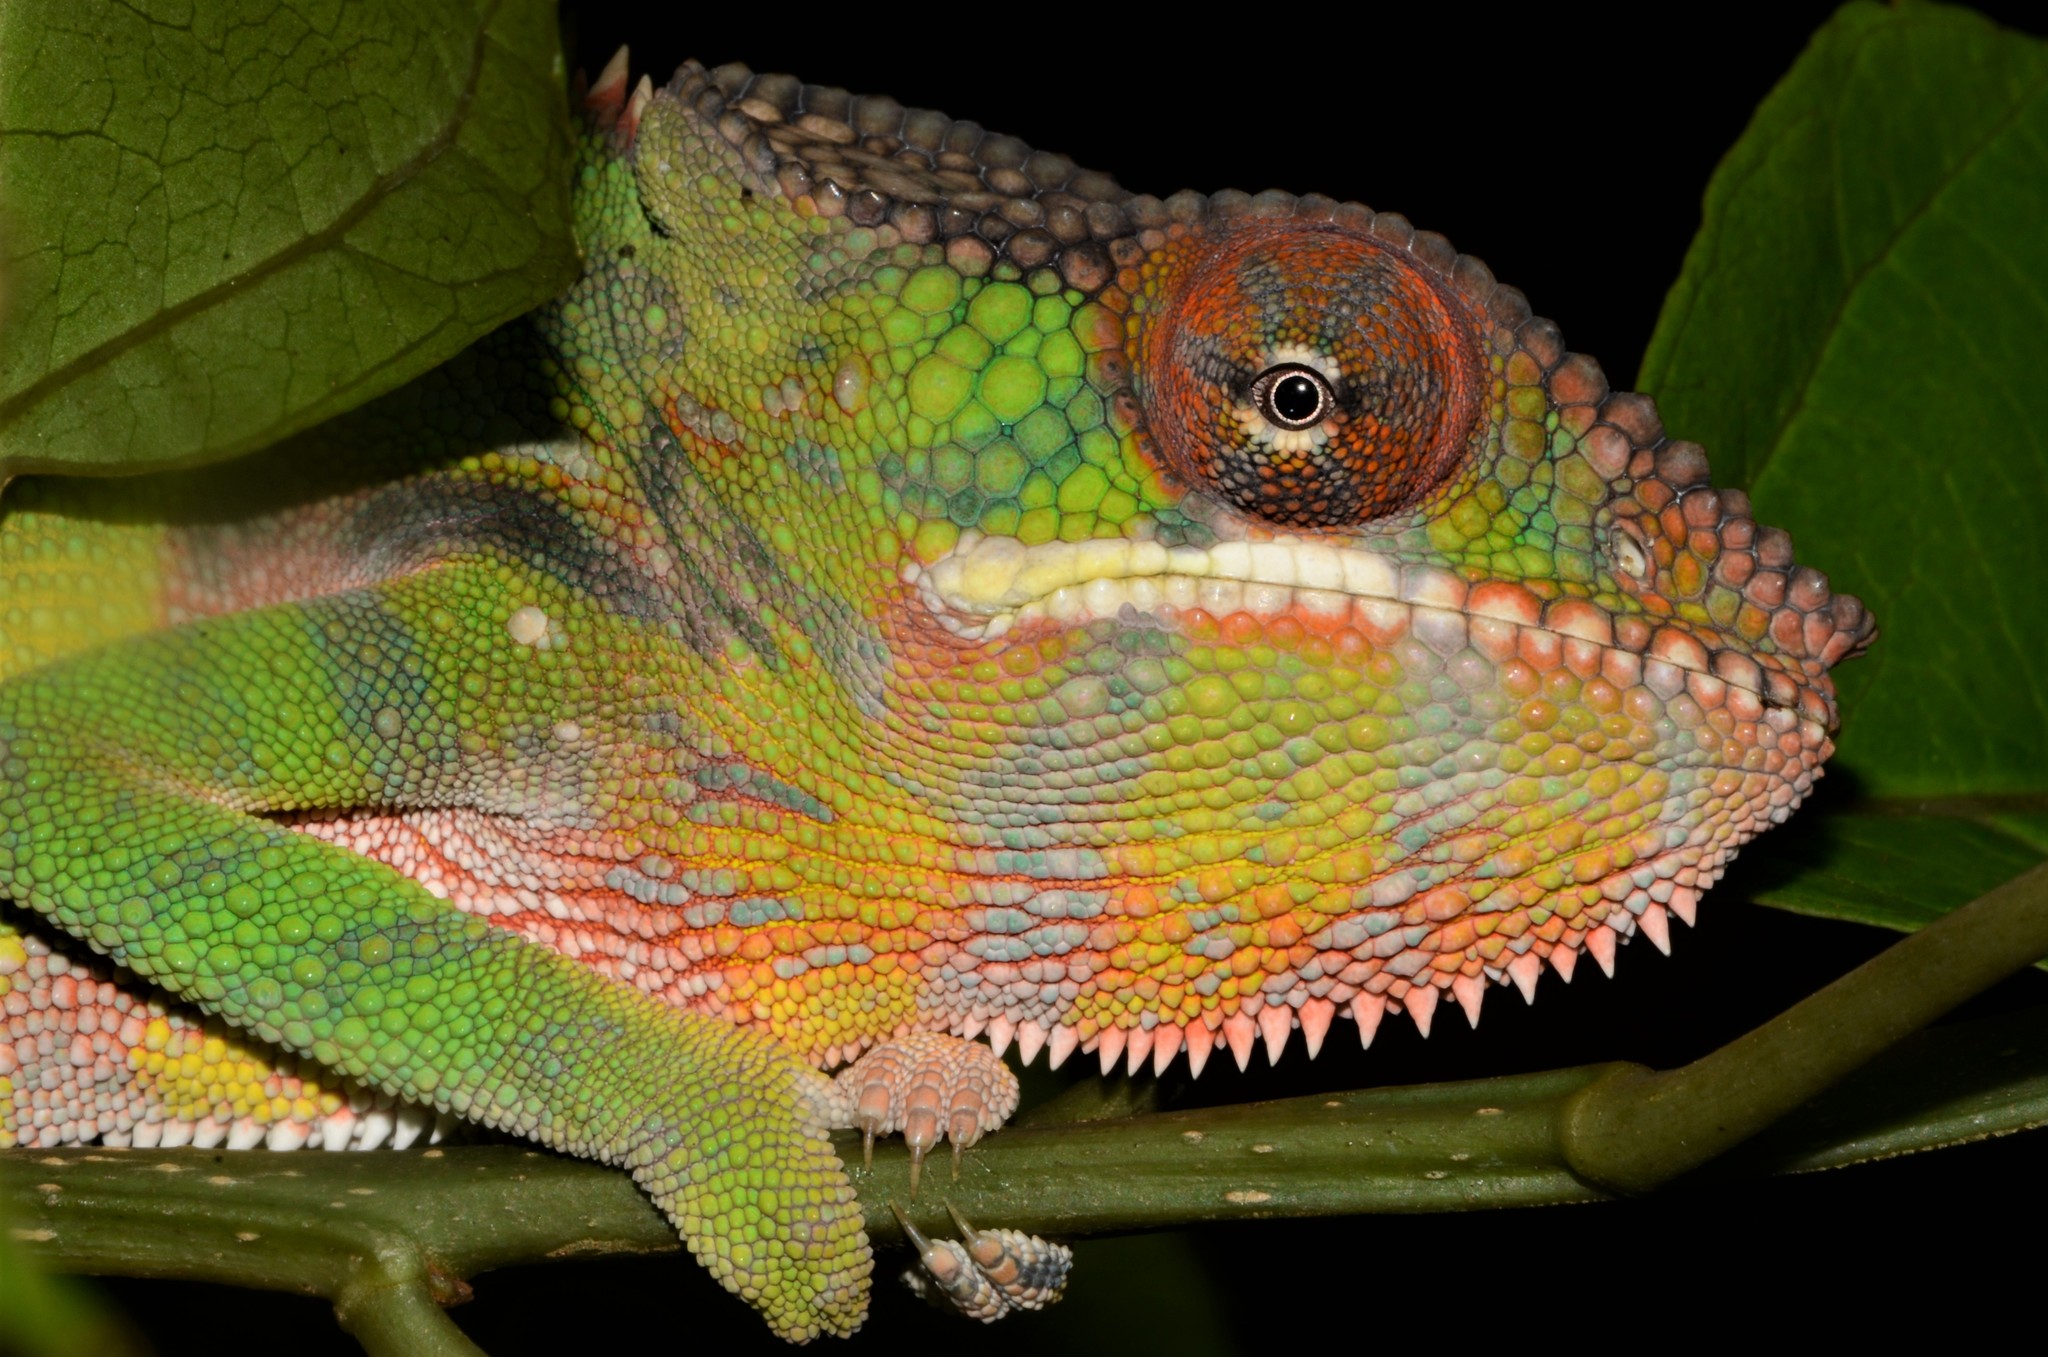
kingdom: Animalia
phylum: Chordata
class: Squamata
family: Chamaeleonidae
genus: Furcifer
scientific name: Furcifer pardalis
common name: Panther chameleon
